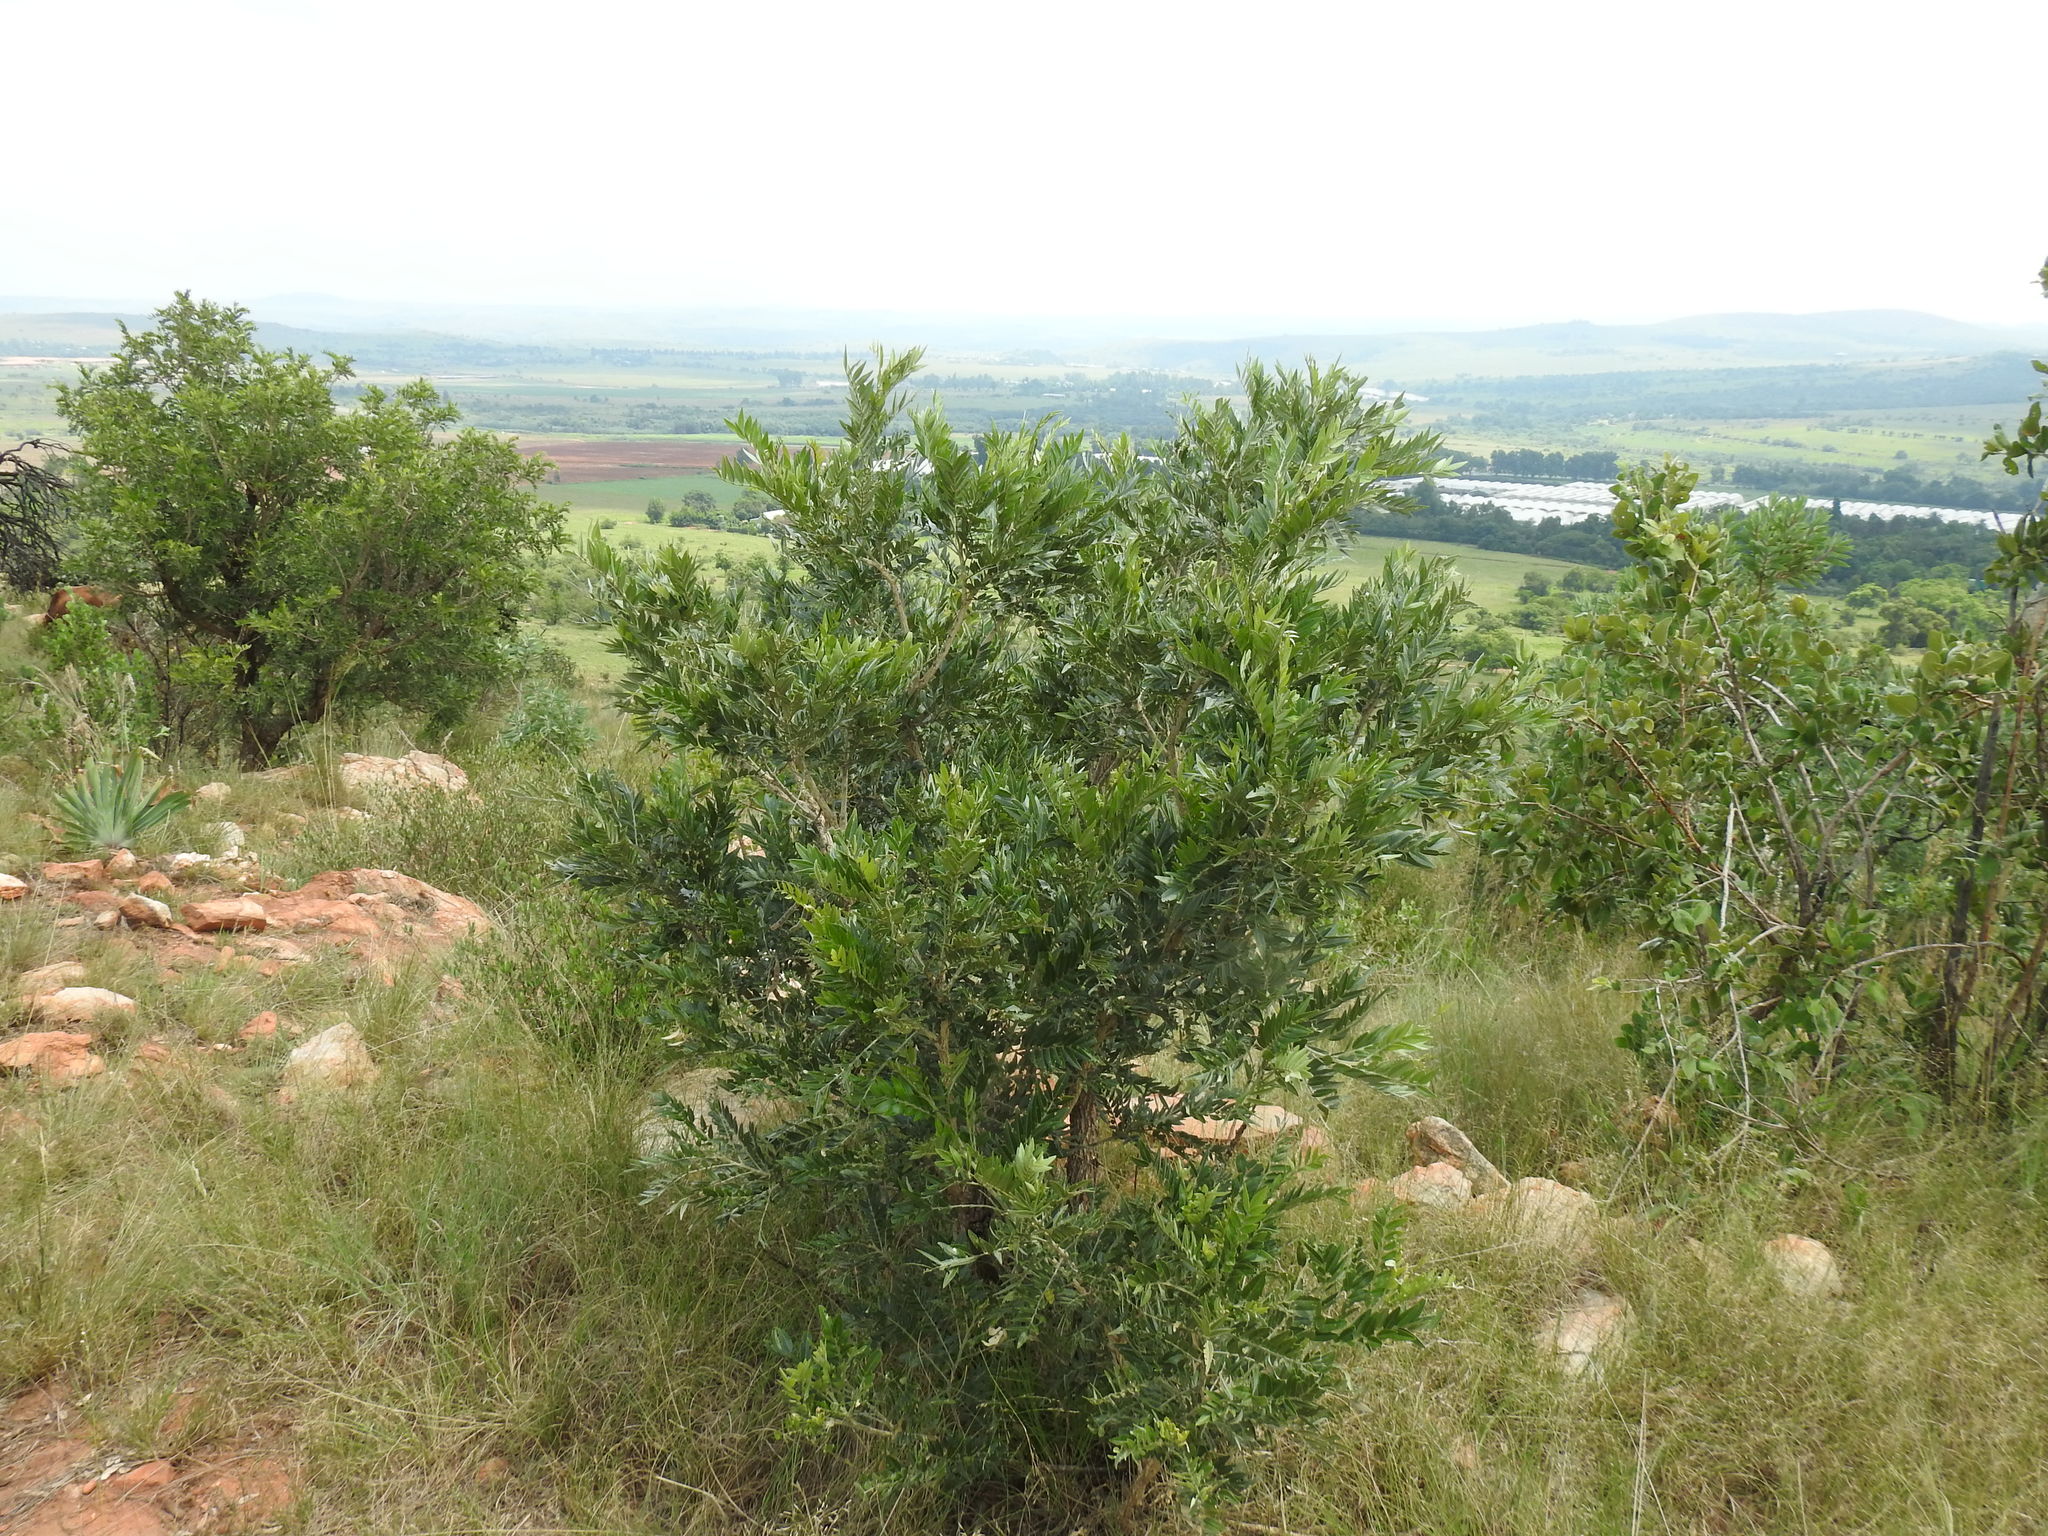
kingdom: Plantae
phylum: Tracheophyta
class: Magnoliopsida
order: Fabales
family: Fabaceae
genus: Mundulea
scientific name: Mundulea sericea
